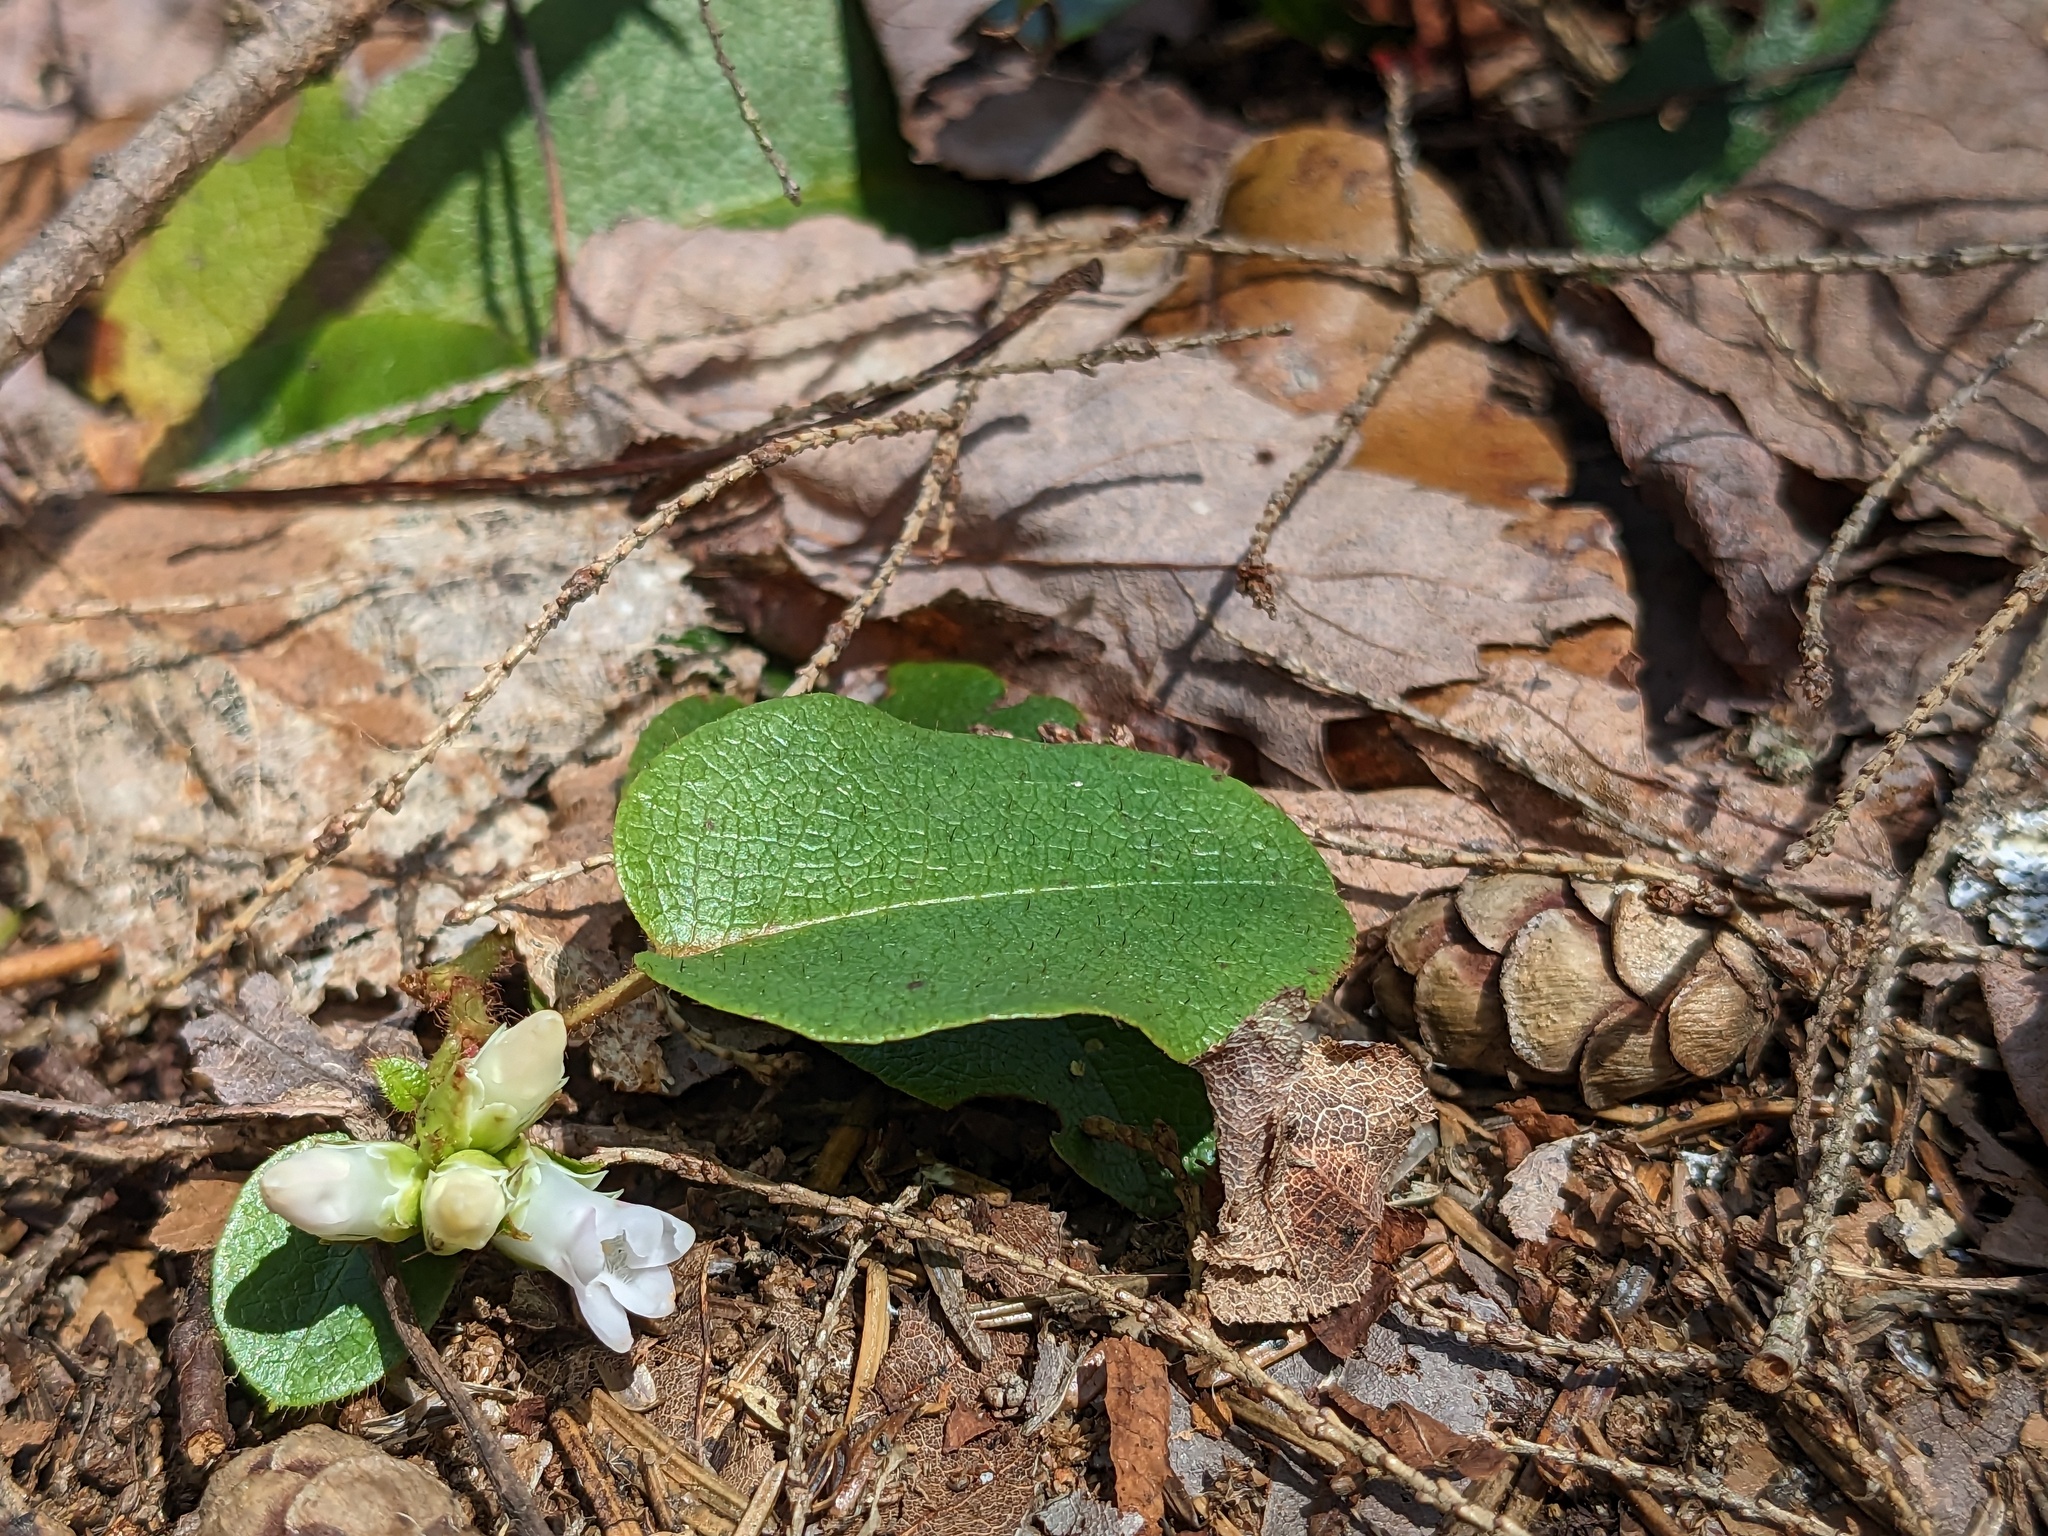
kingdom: Plantae
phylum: Tracheophyta
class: Magnoliopsida
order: Ericales
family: Ericaceae
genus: Epigaea
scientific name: Epigaea repens
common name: Gravelroot
